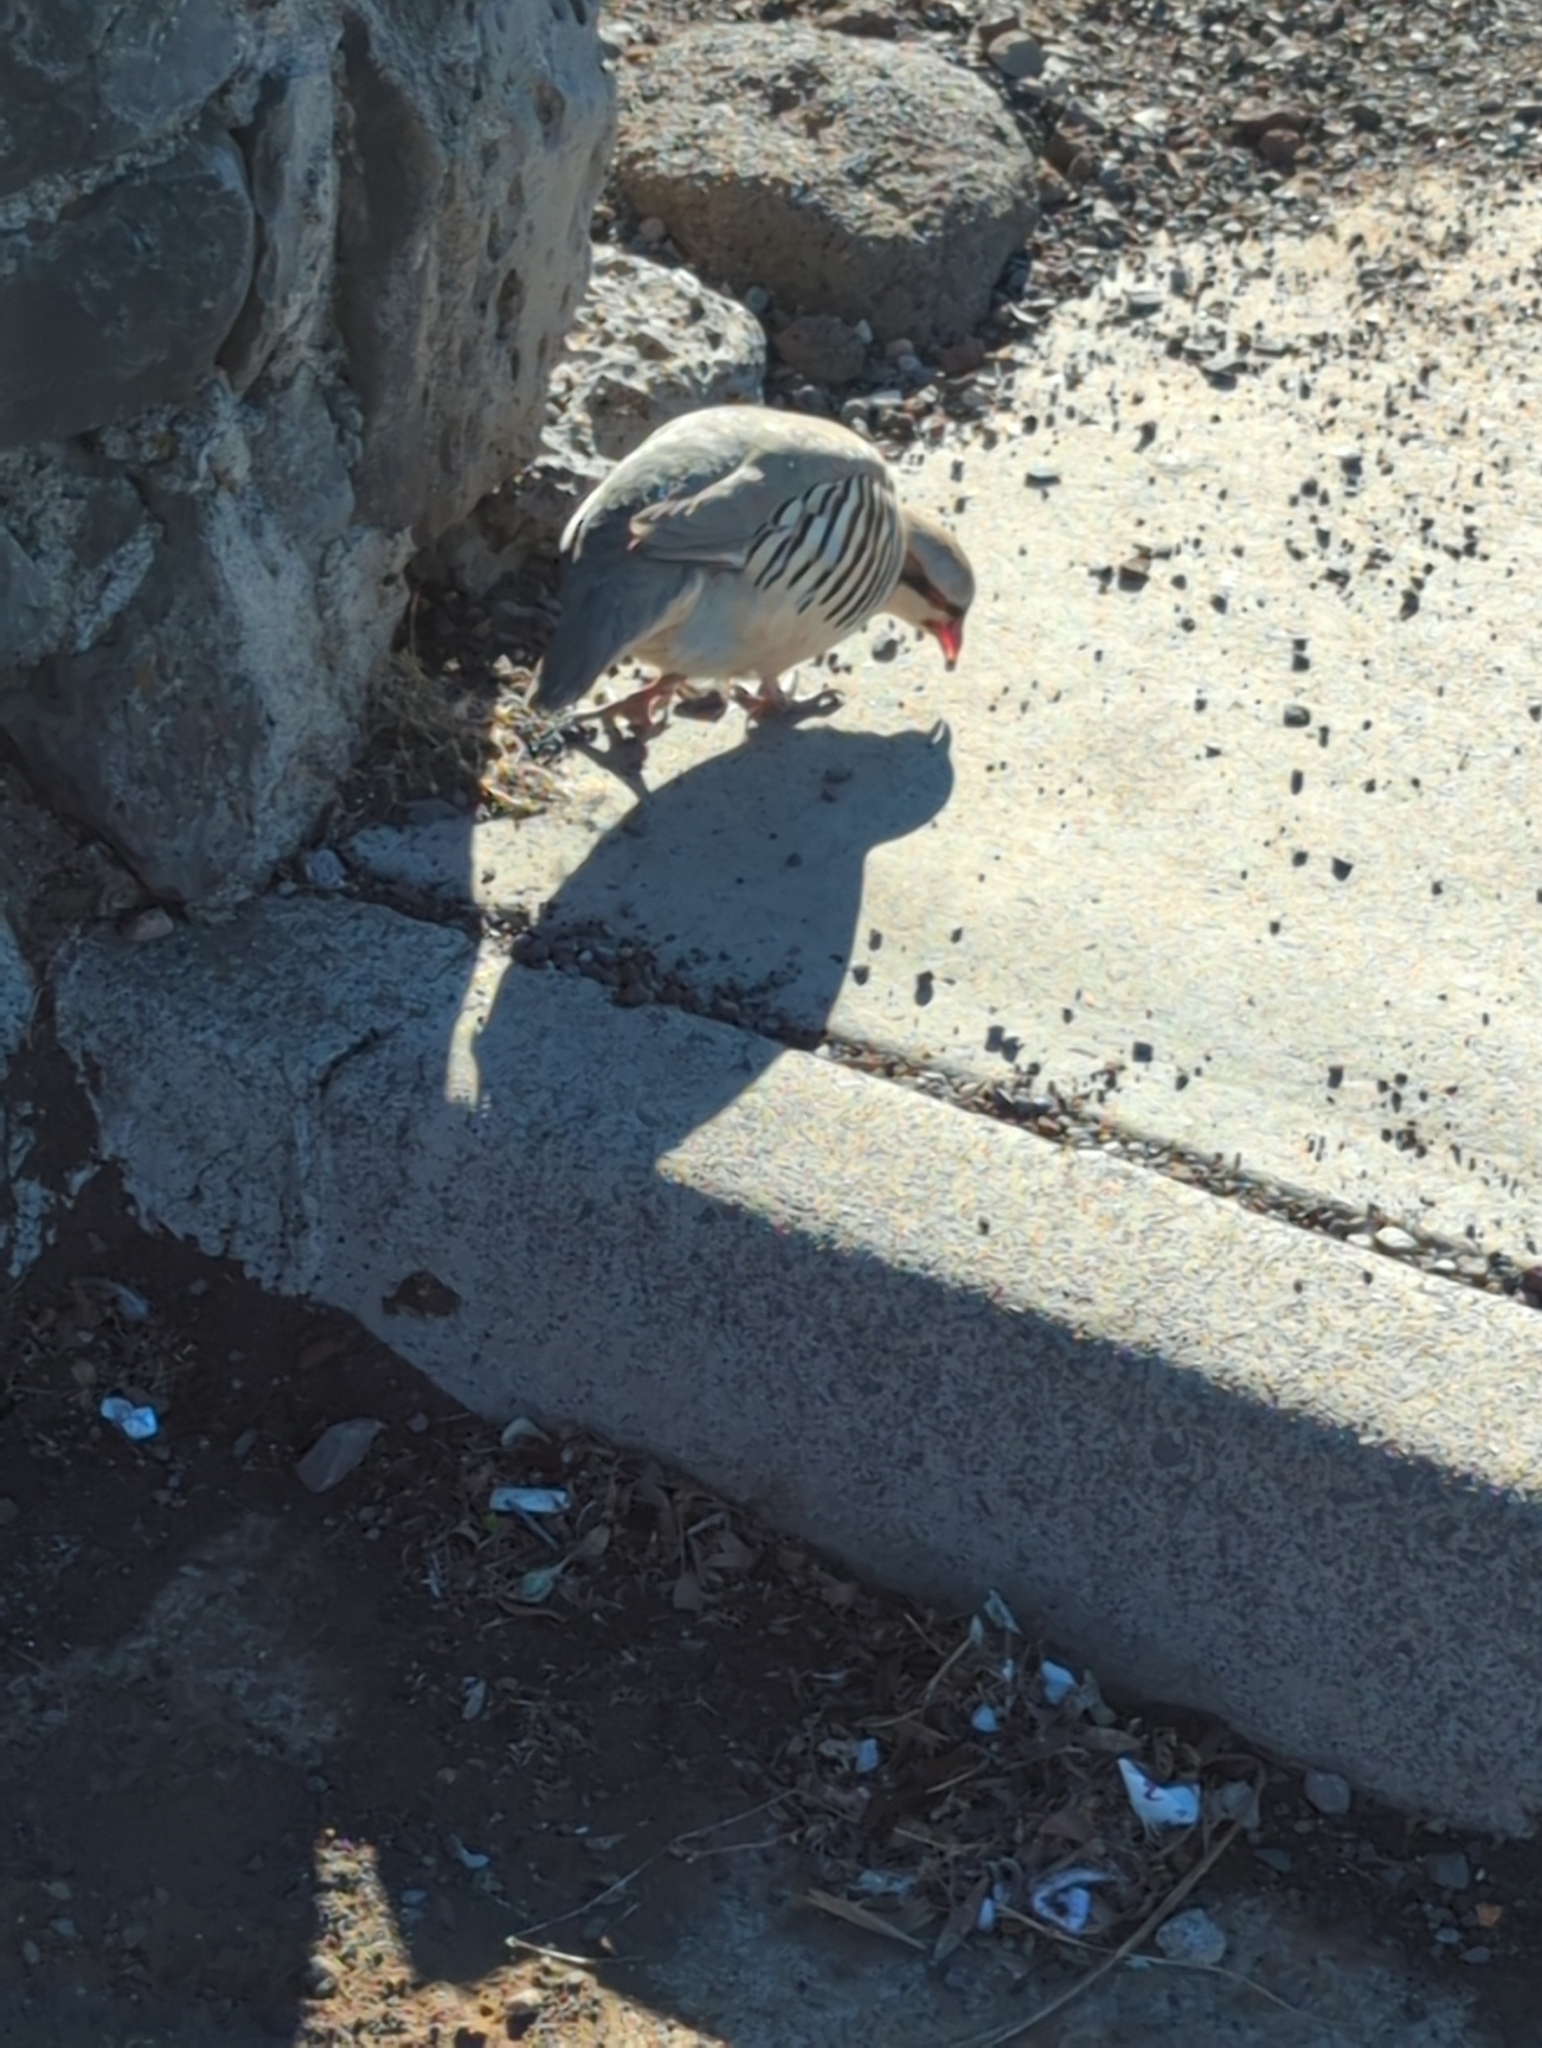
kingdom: Animalia
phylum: Chordata
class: Aves
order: Galliformes
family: Phasianidae
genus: Alectoris
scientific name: Alectoris chukar
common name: Chukar
